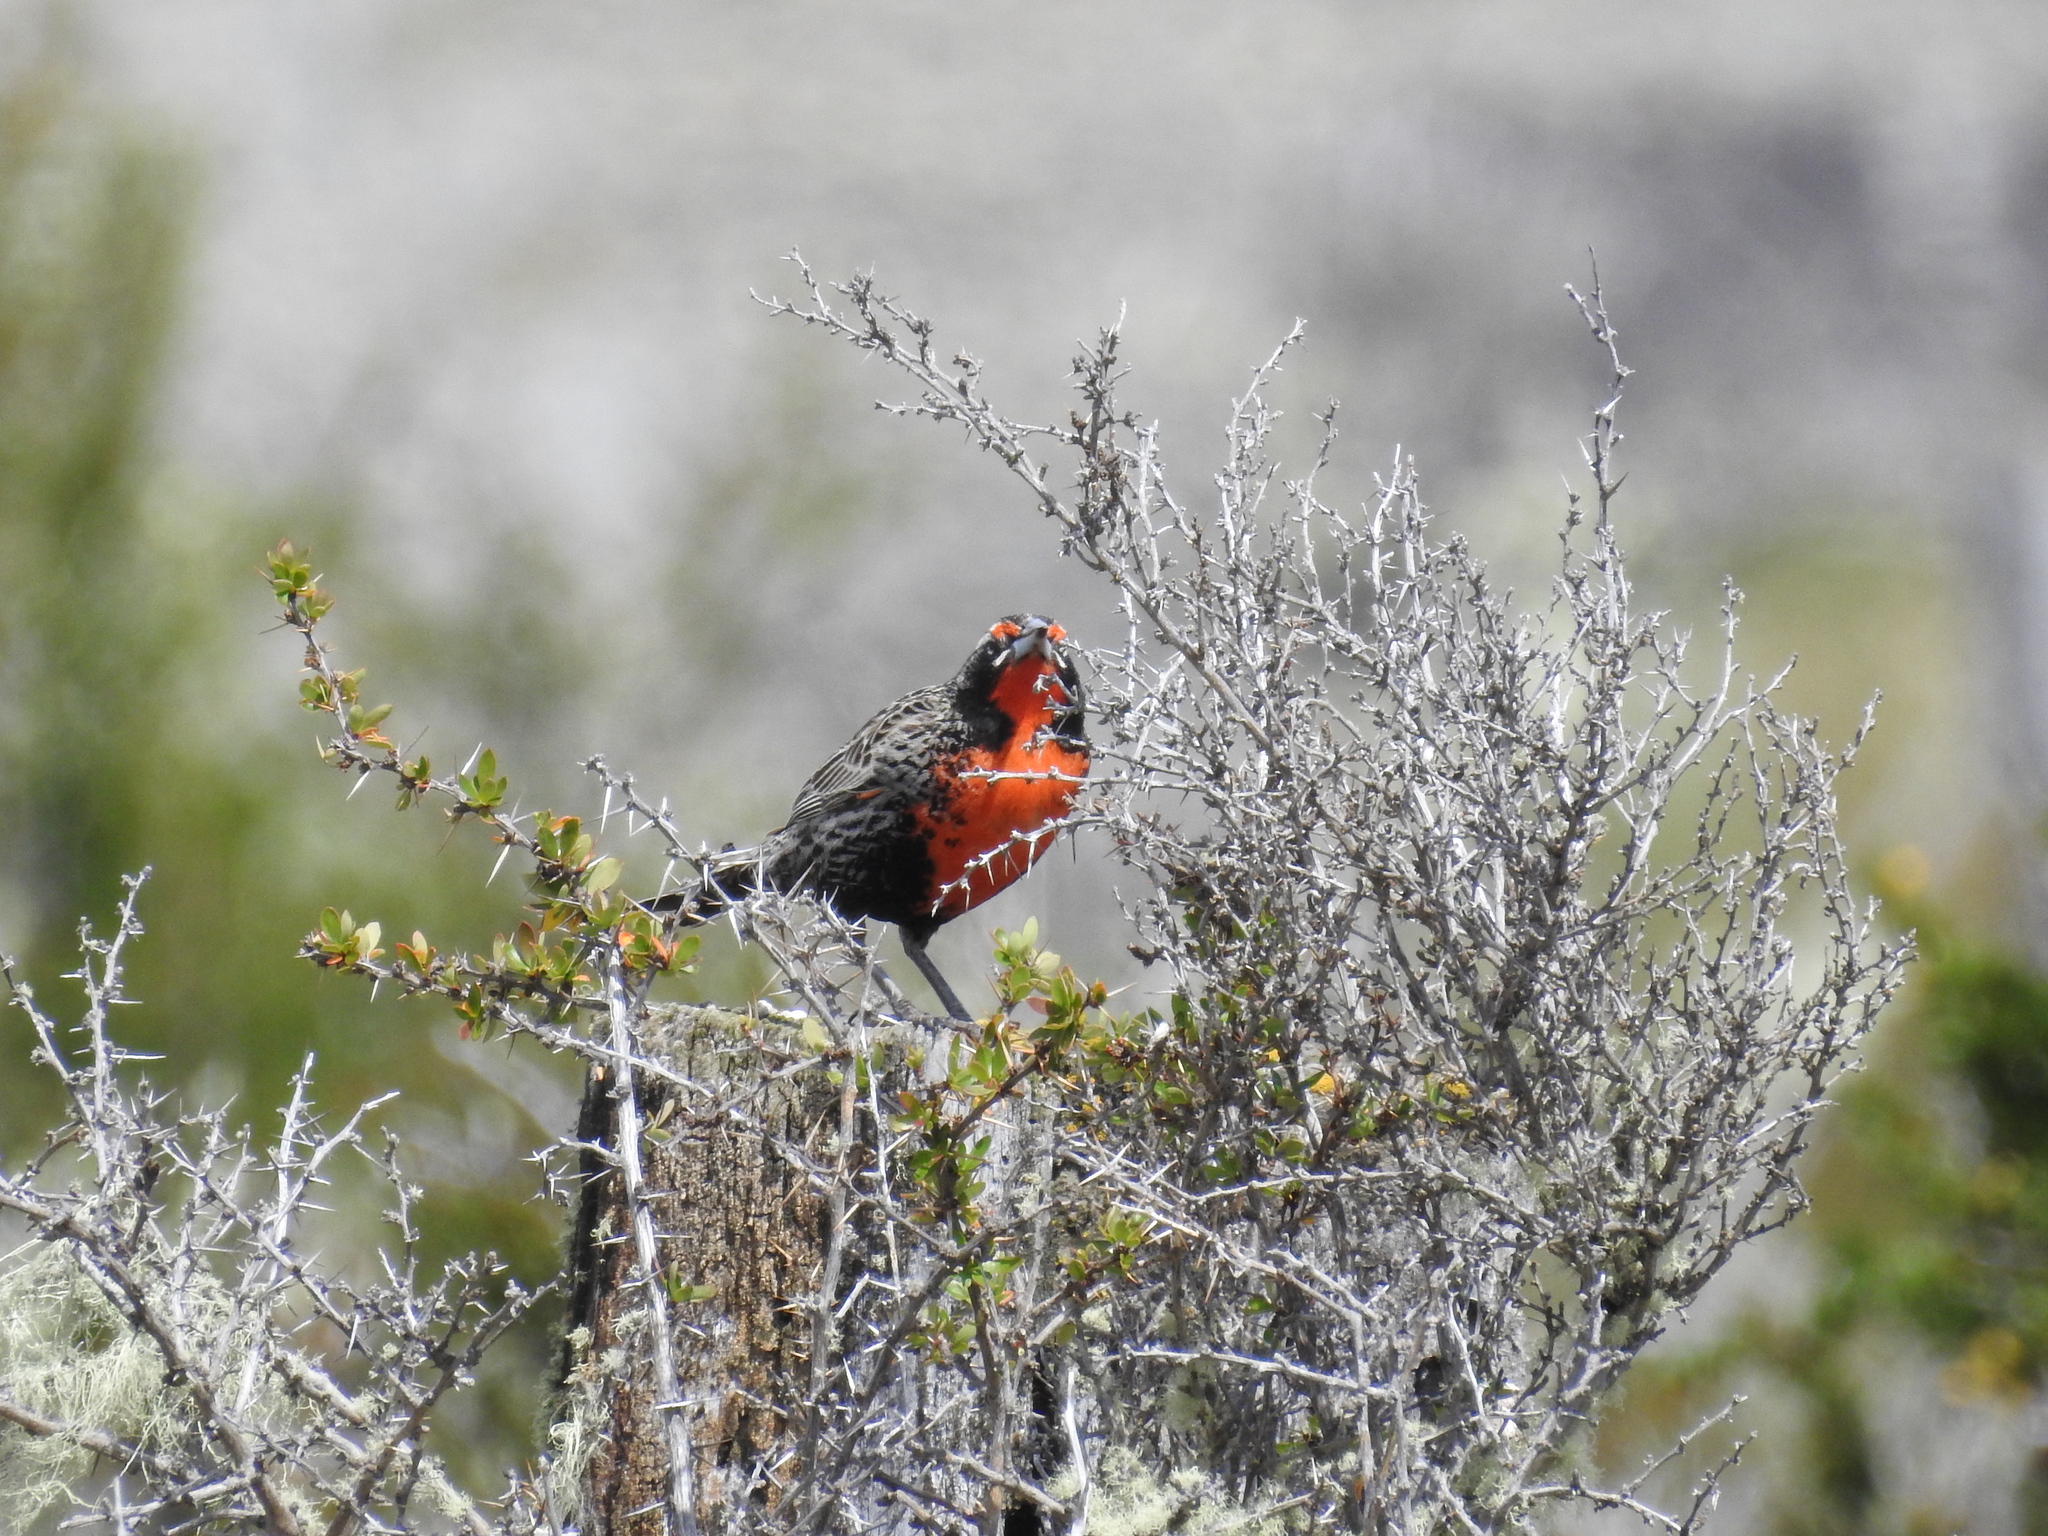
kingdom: Animalia
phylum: Chordata
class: Aves
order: Passeriformes
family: Icteridae
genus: Sturnella
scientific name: Sturnella loyca
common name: Long-tailed meadowlark
